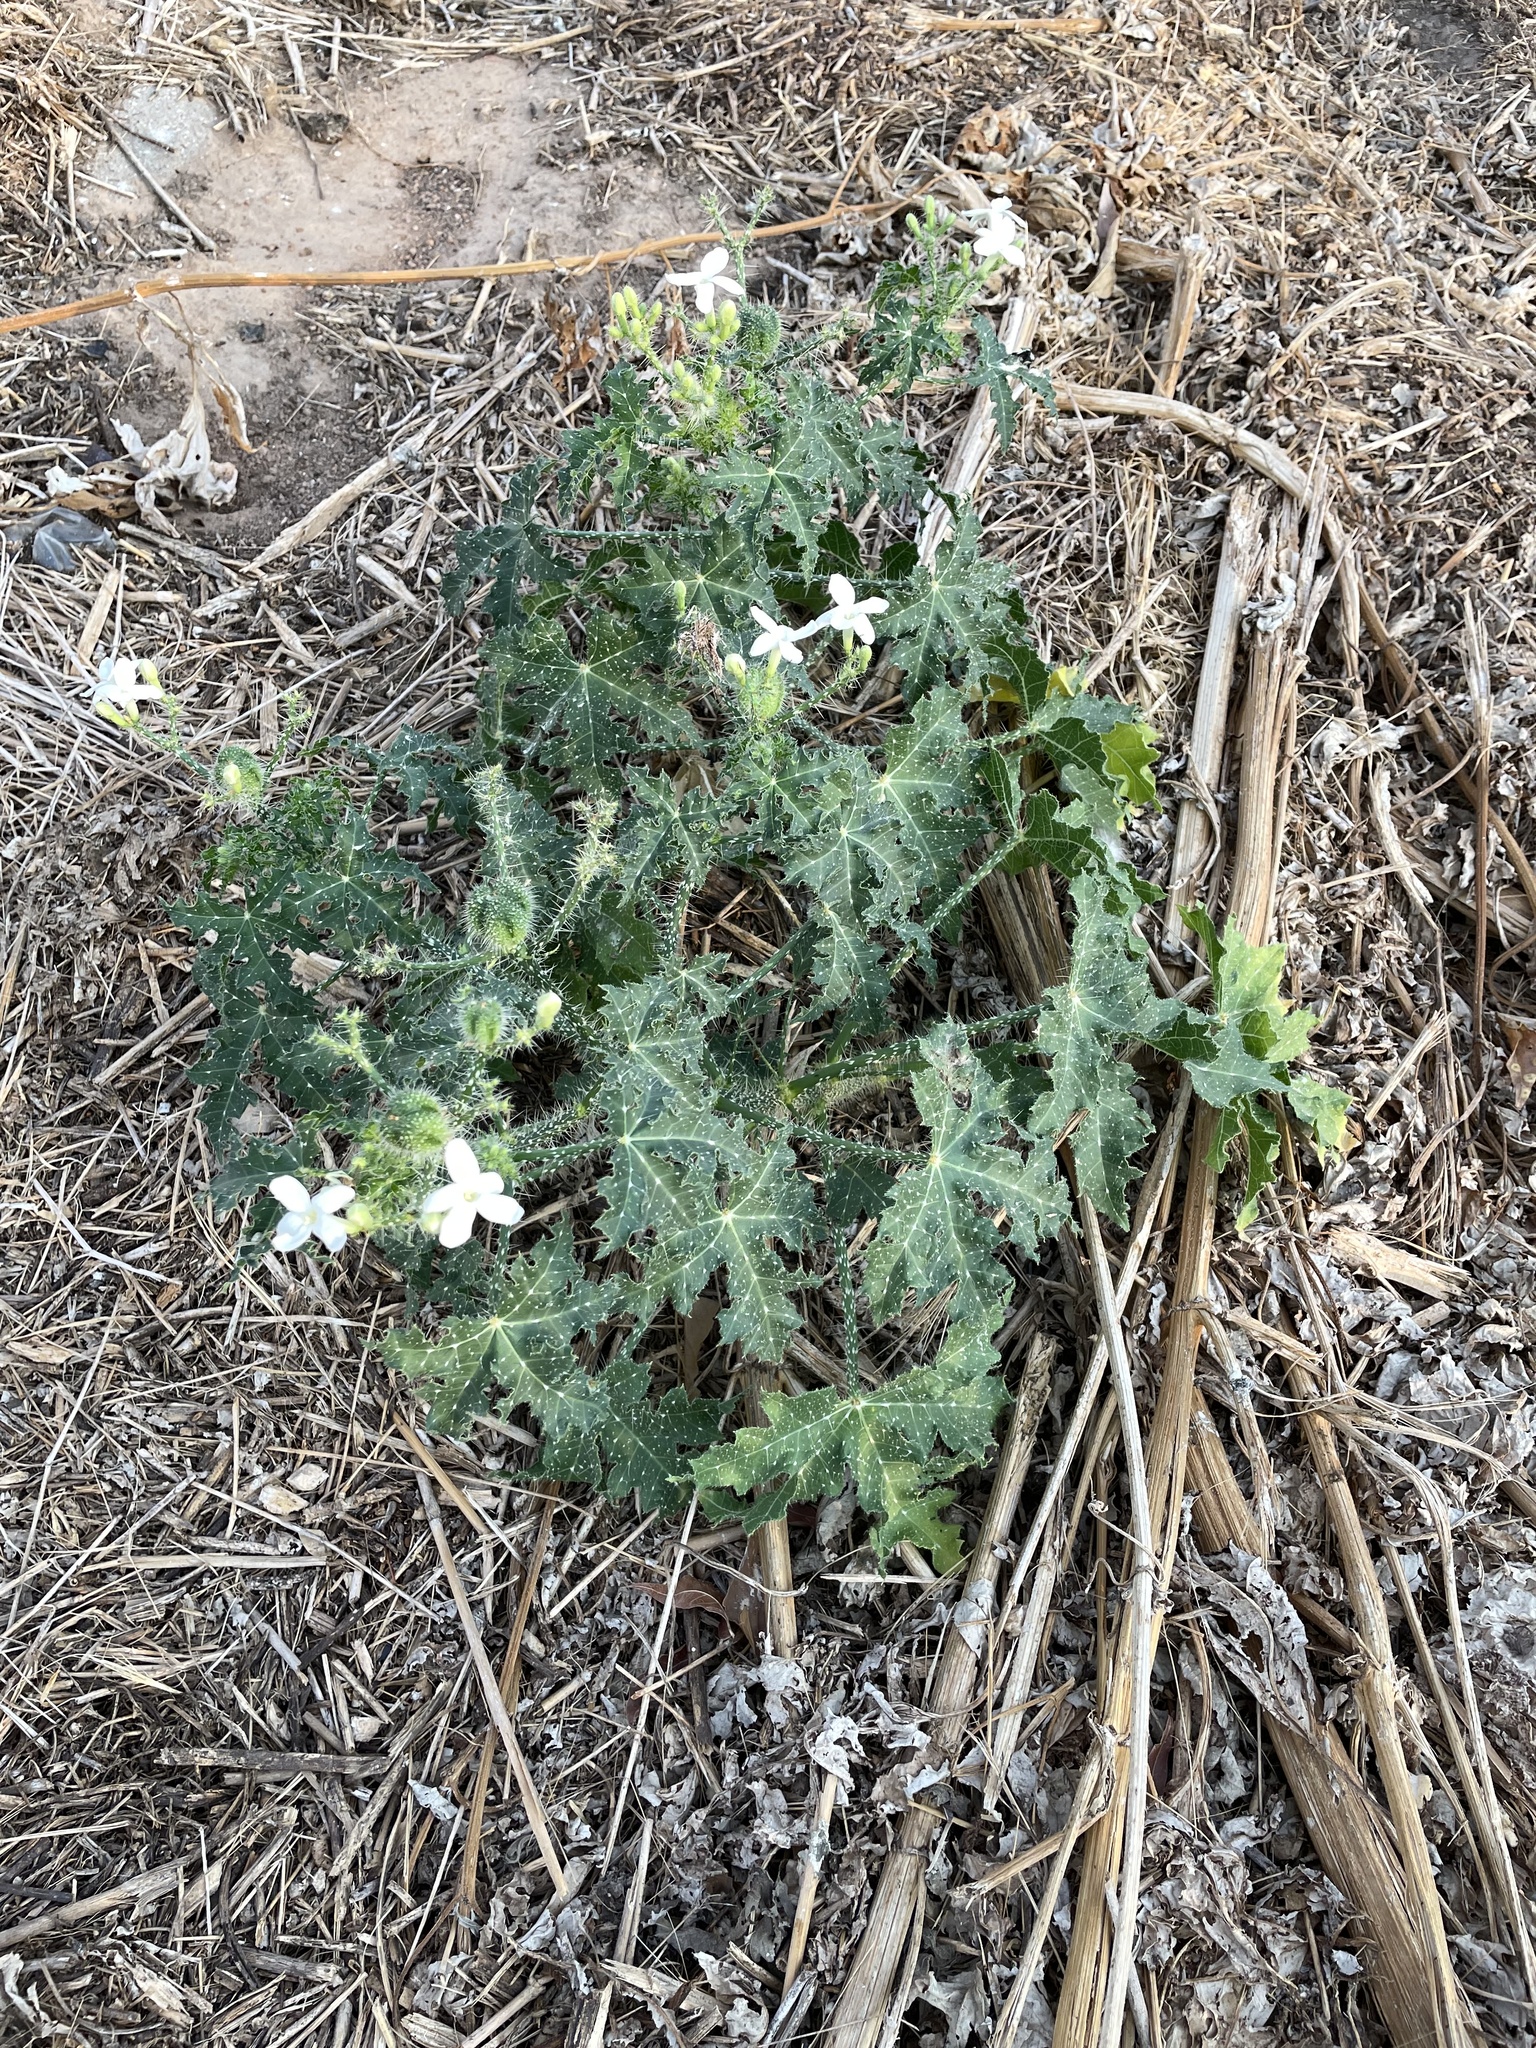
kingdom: Plantae
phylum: Tracheophyta
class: Magnoliopsida
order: Malpighiales
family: Euphorbiaceae
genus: Cnidoscolus
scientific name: Cnidoscolus texanus
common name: Texas bull-nettle
